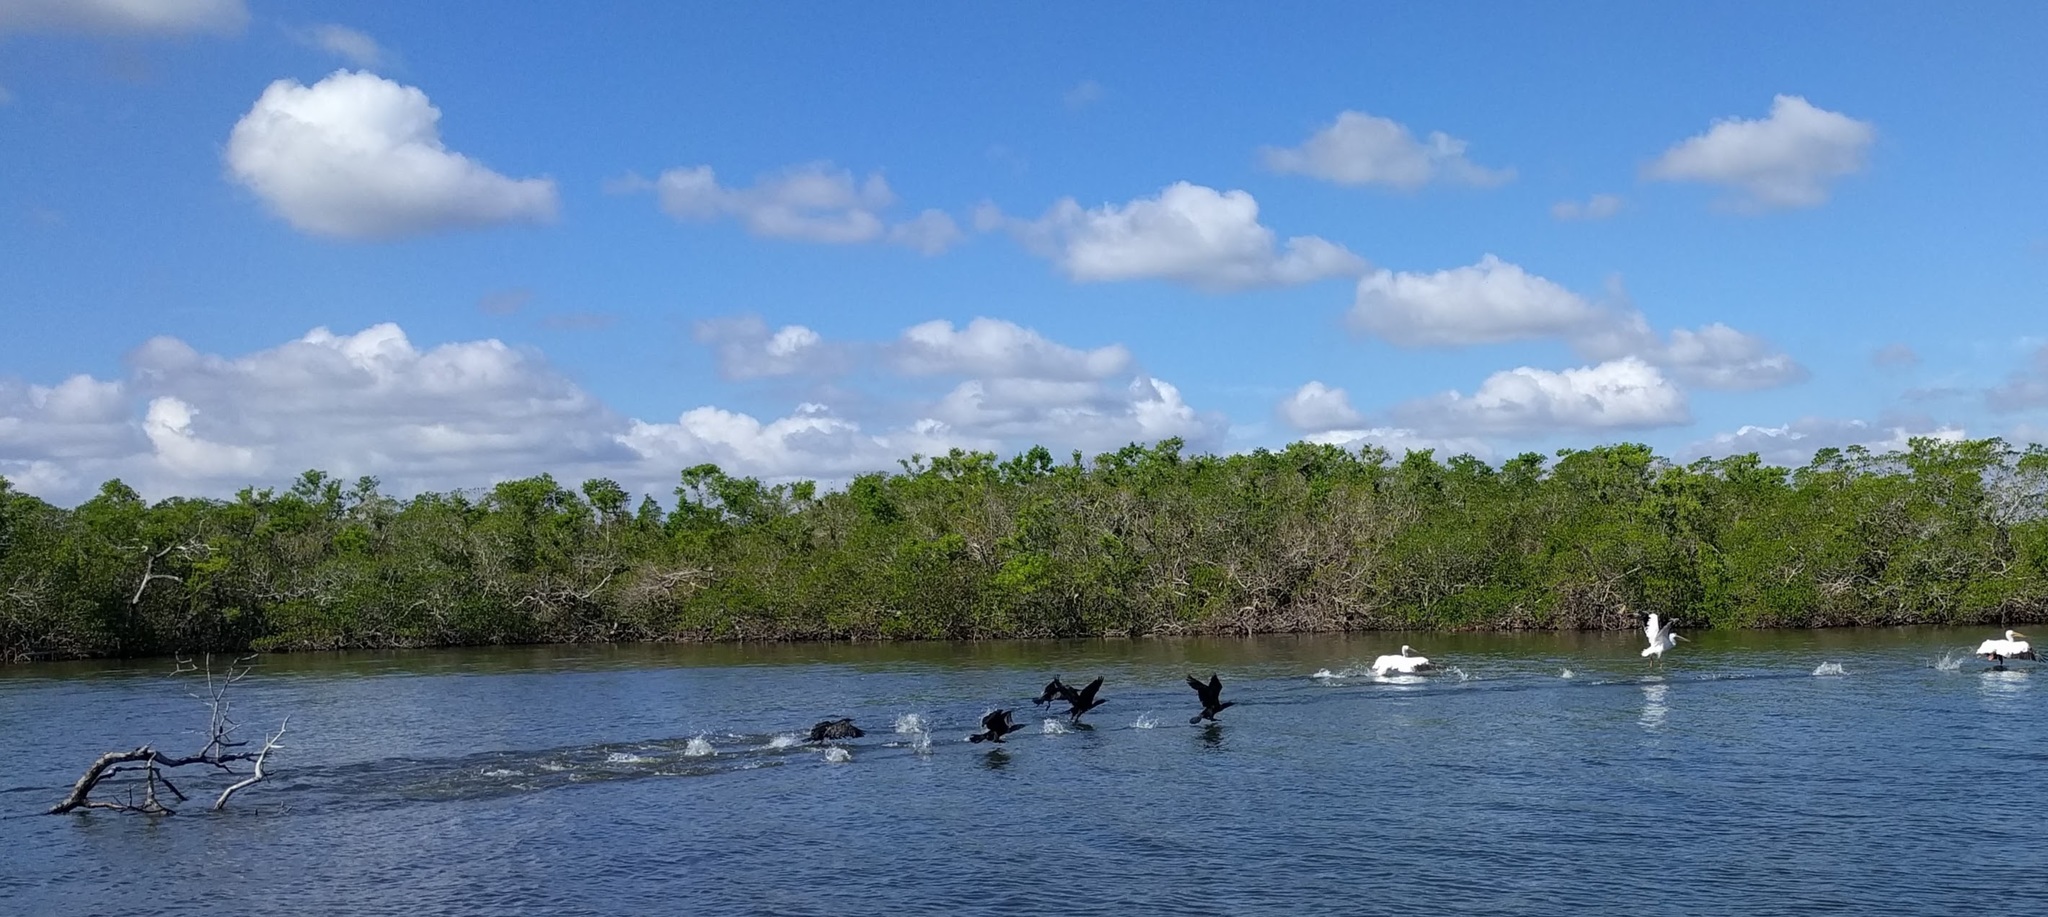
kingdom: Animalia
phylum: Chordata
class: Aves
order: Suliformes
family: Phalacrocoracidae
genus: Phalacrocorax
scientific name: Phalacrocorax auritus
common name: Double-crested cormorant
